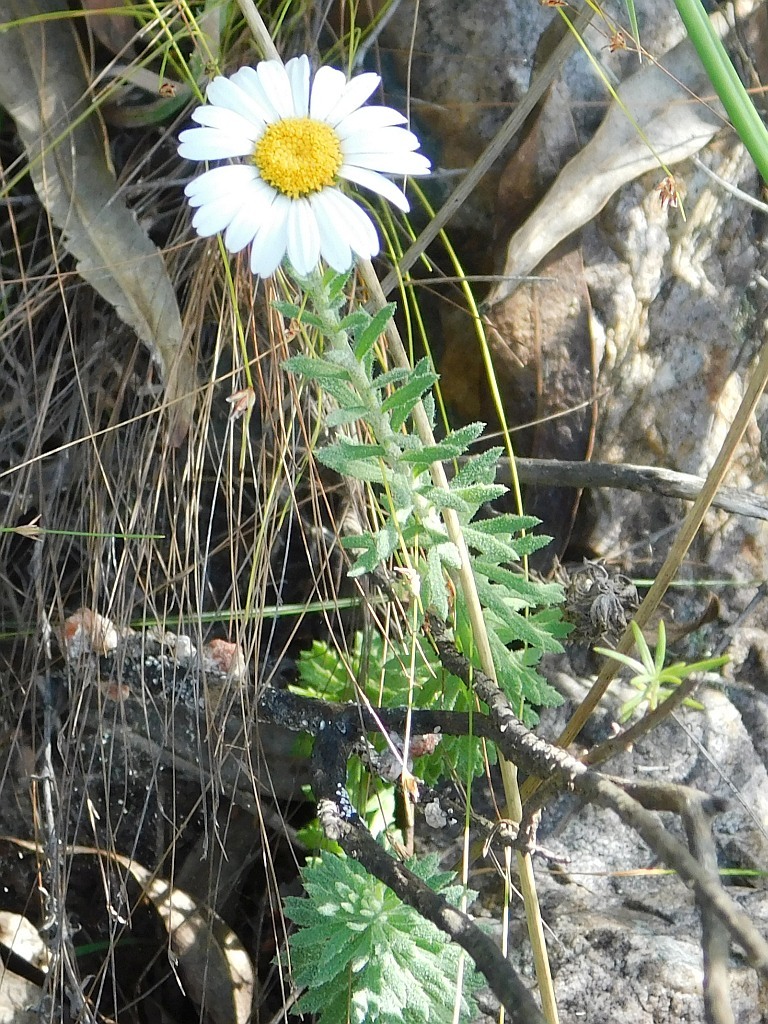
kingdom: Plantae
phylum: Tracheophyta
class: Magnoliopsida
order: Asterales
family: Asteraceae
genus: Osmitopsis
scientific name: Osmitopsis afra
